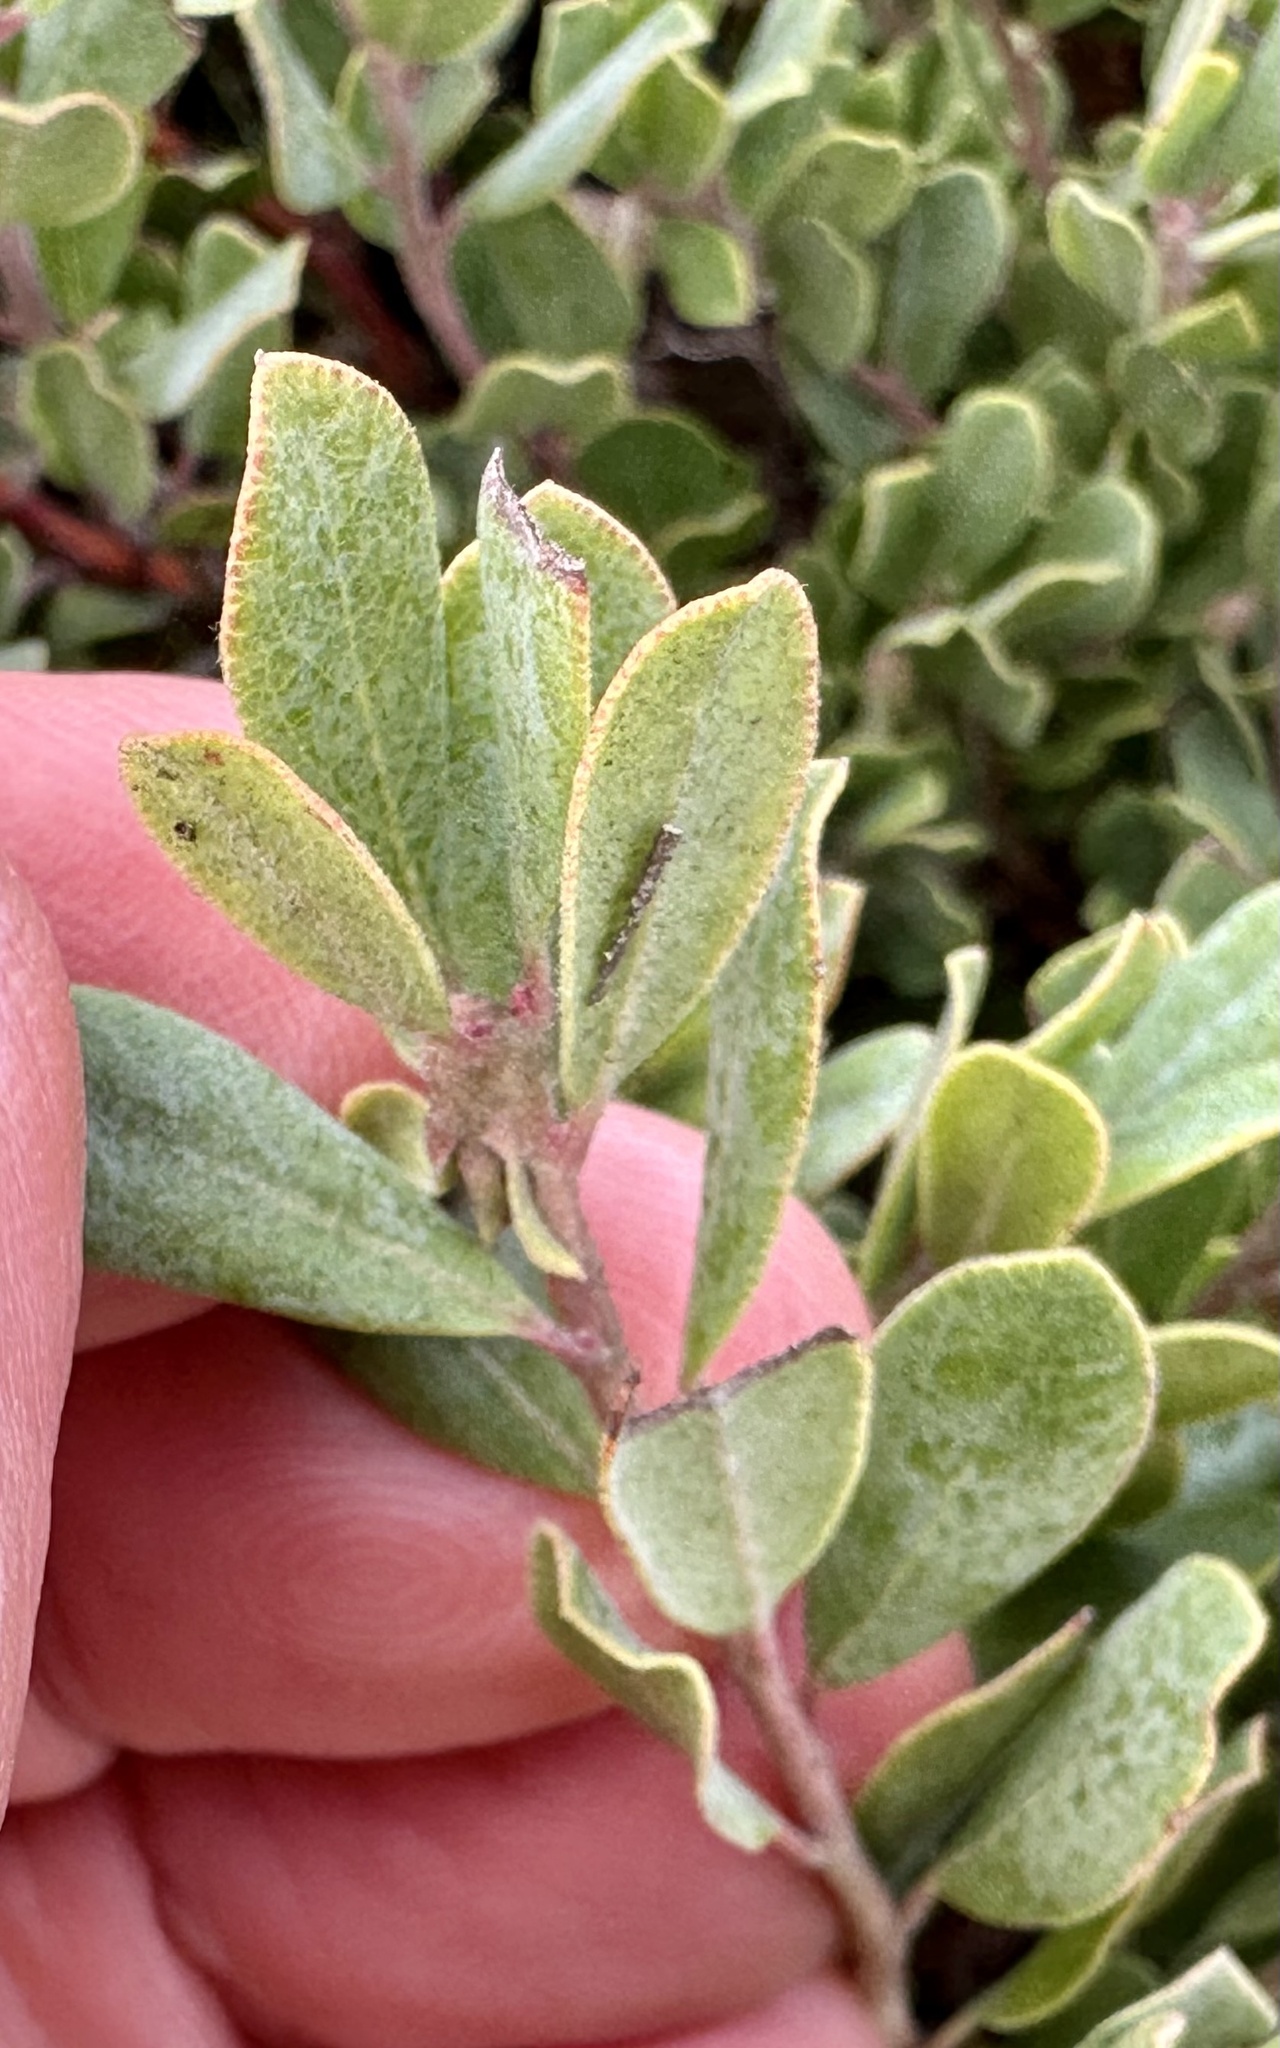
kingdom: Plantae
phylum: Tracheophyta
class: Magnoliopsida
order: Ericales
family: Ericaceae
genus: Arctostaphylos
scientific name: Arctostaphylos pumila
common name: Sandmat manzanita
